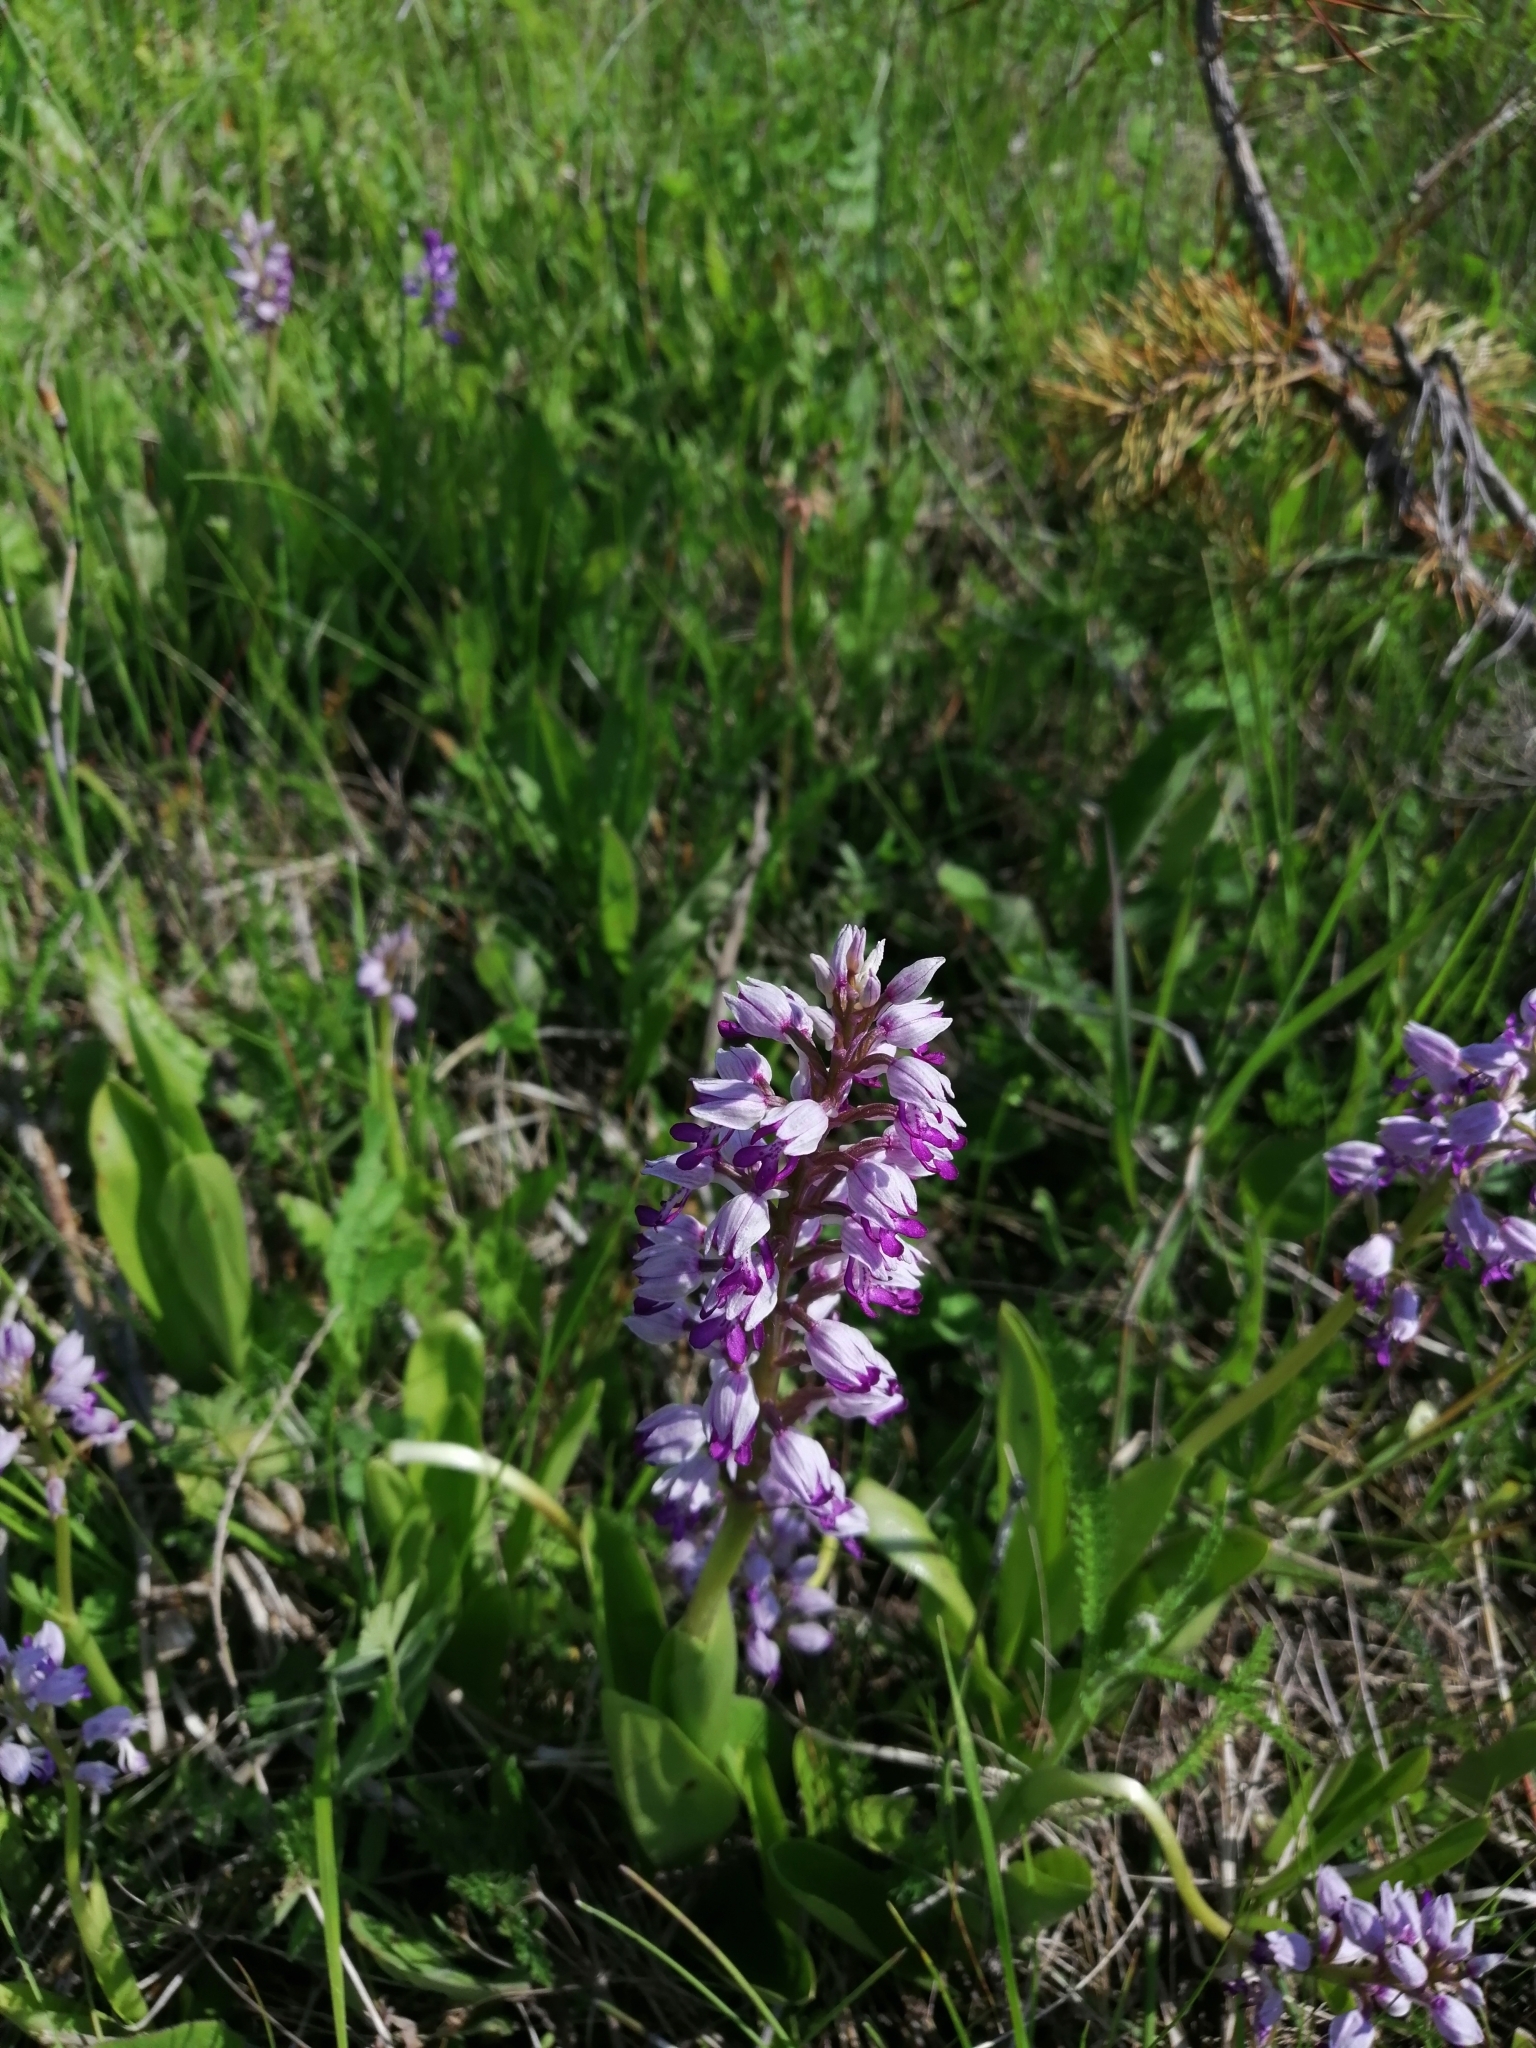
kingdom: Plantae
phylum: Tracheophyta
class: Liliopsida
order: Asparagales
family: Orchidaceae
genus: Orchis
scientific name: Orchis militaris
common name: Military orchid
